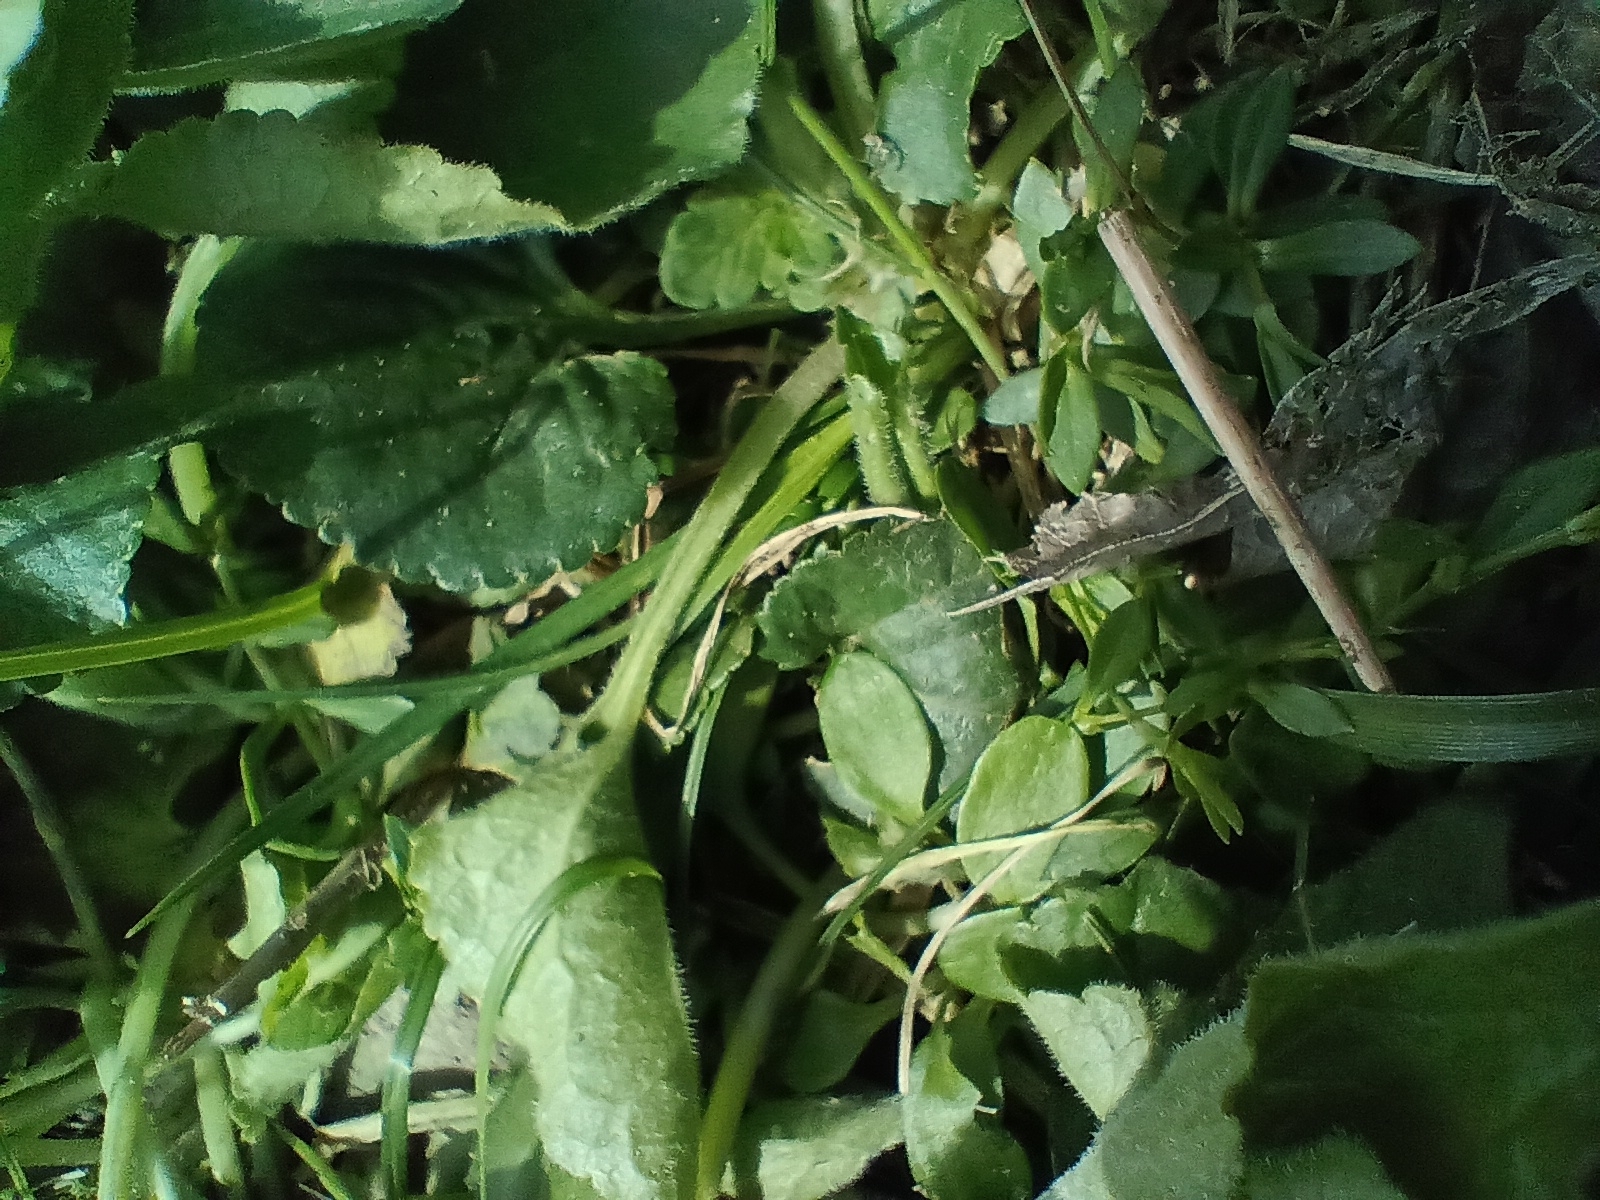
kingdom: Plantae
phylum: Tracheophyta
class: Magnoliopsida
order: Malpighiales
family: Violaceae
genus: Viola
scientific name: Viola odorata
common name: Sweet violet
